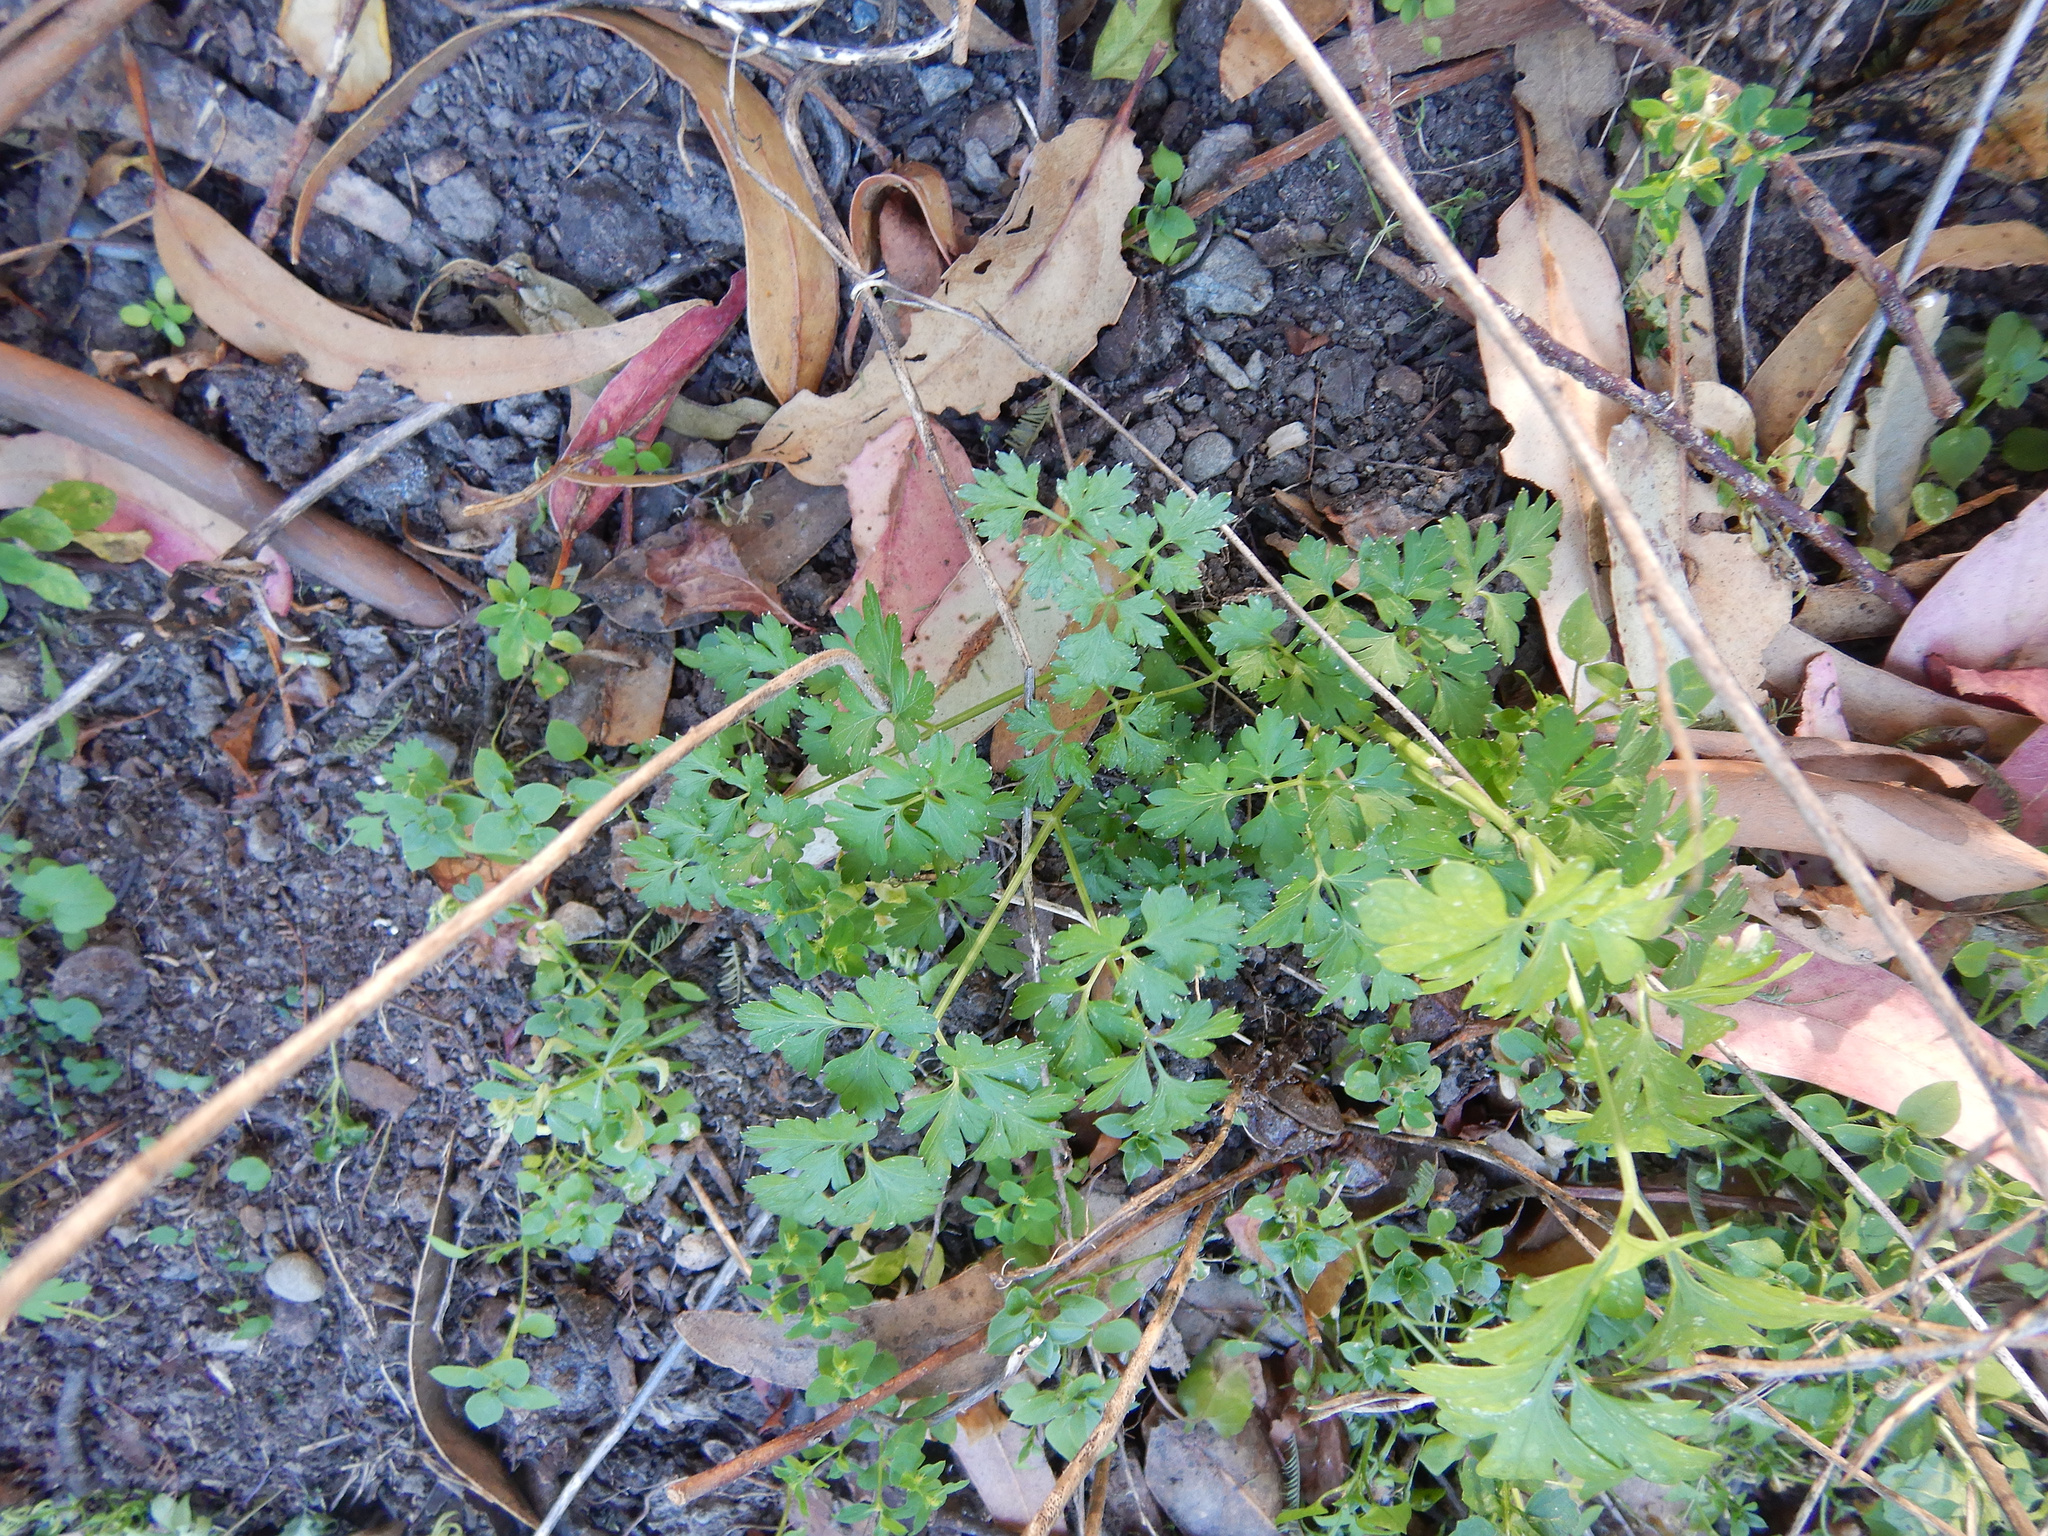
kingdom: Plantae
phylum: Tracheophyta
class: Magnoliopsida
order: Apiales
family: Apiaceae
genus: Petroselinum
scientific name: Petroselinum crispum
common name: Parsley
